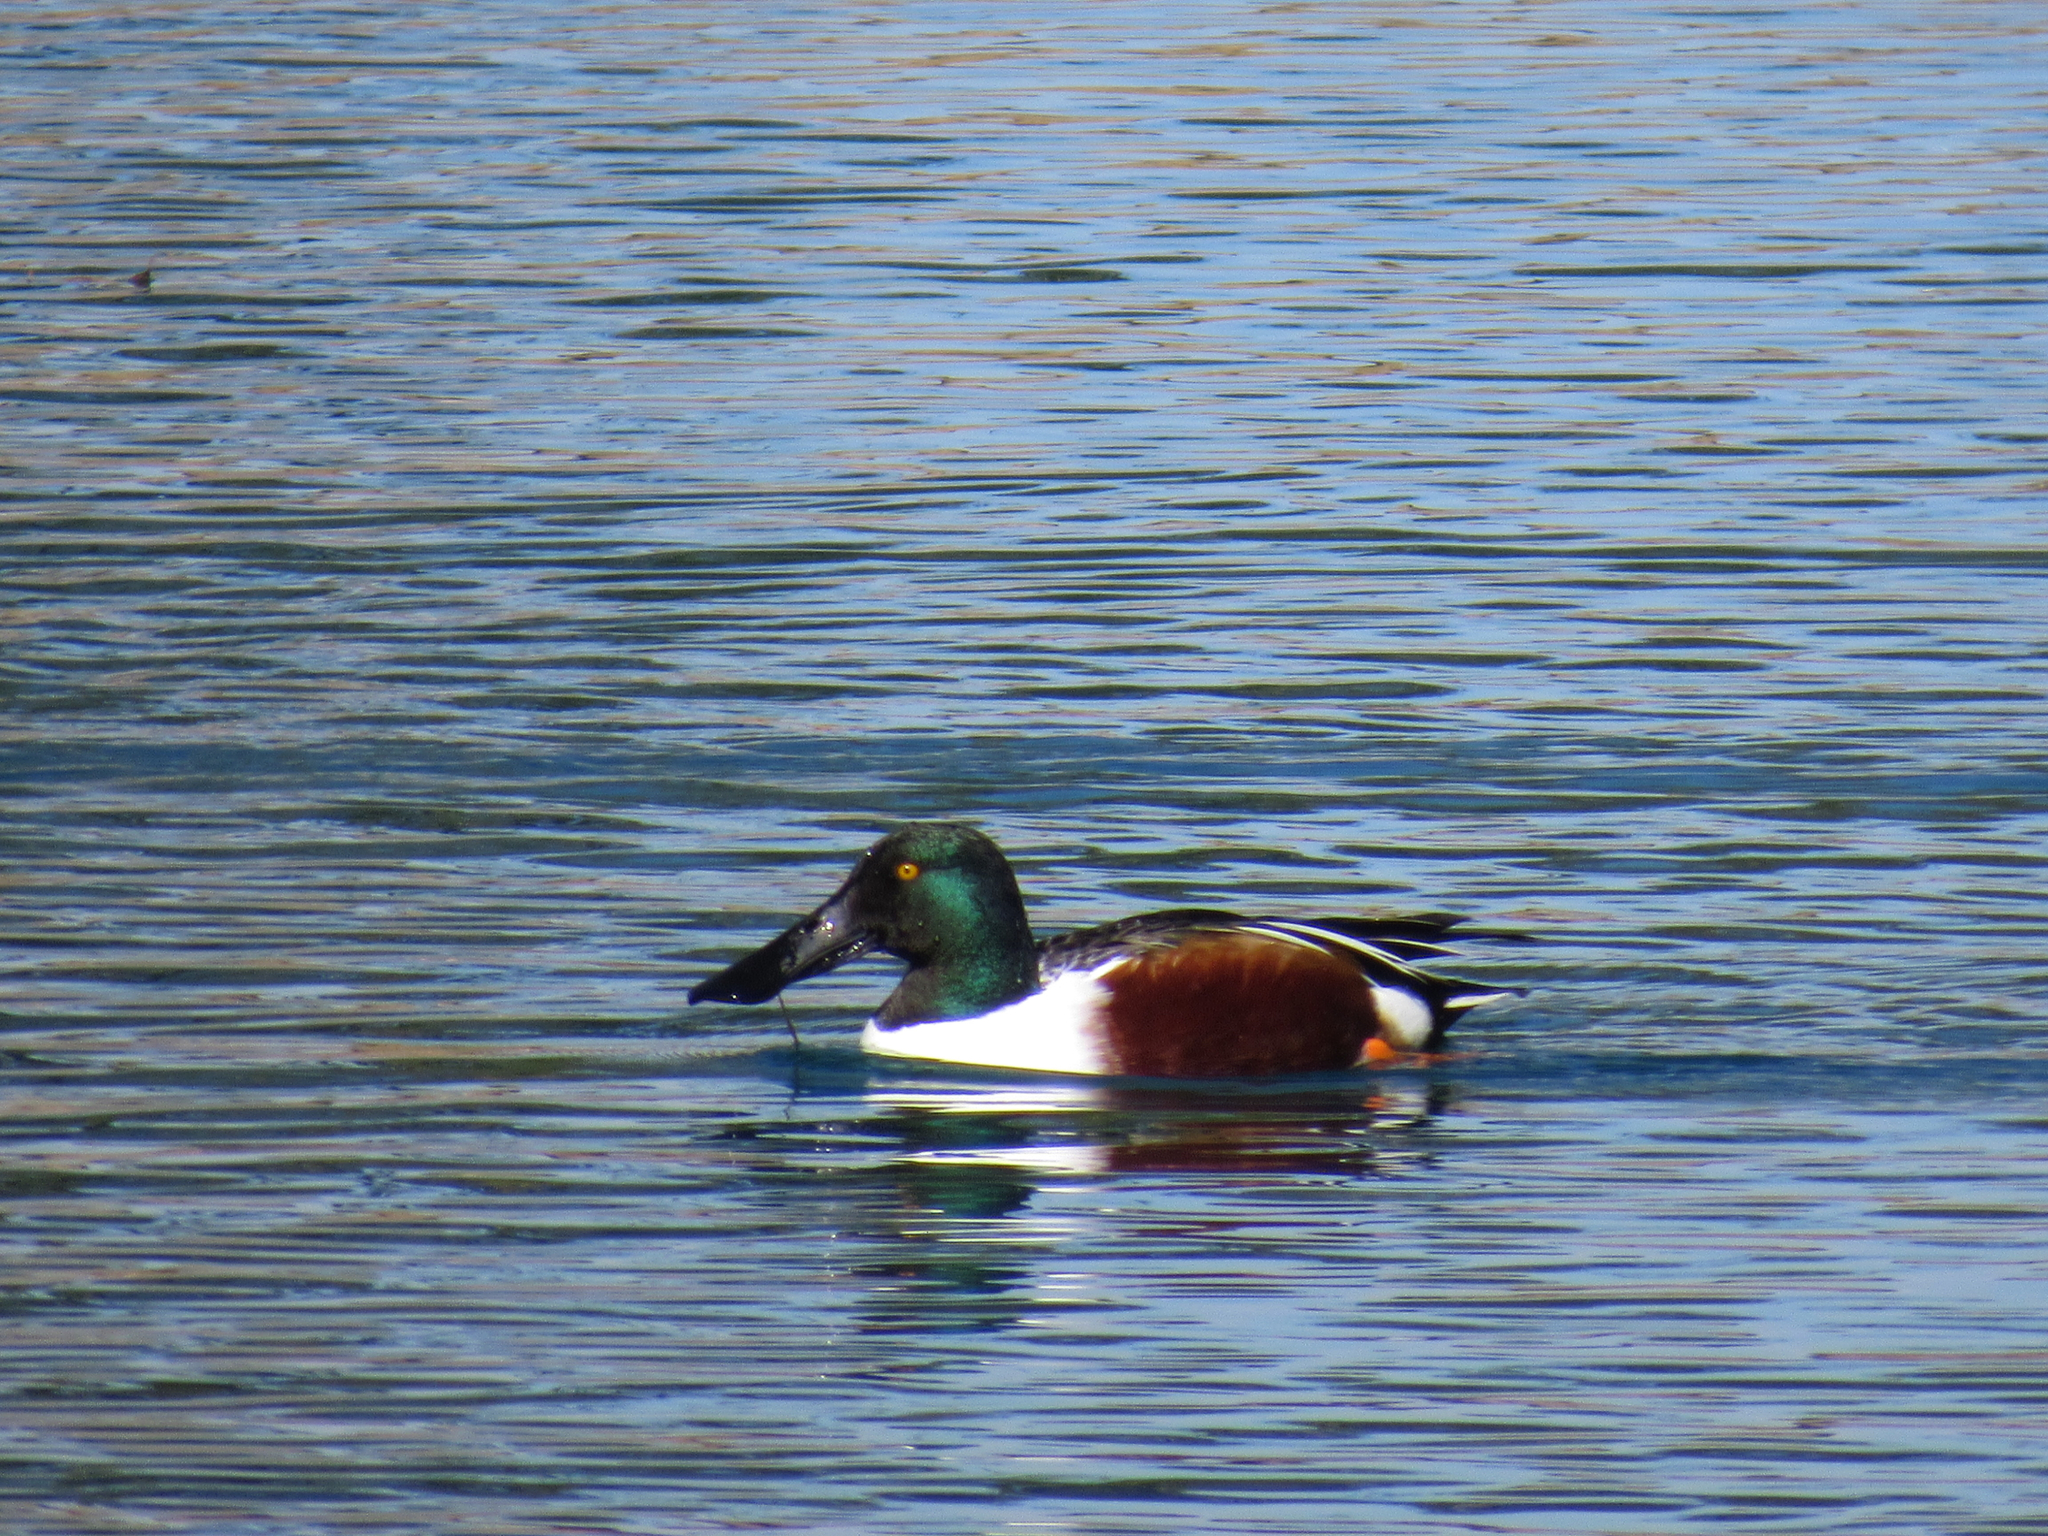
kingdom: Animalia
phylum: Chordata
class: Aves
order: Anseriformes
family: Anatidae
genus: Spatula
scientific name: Spatula clypeata
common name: Northern shoveler
